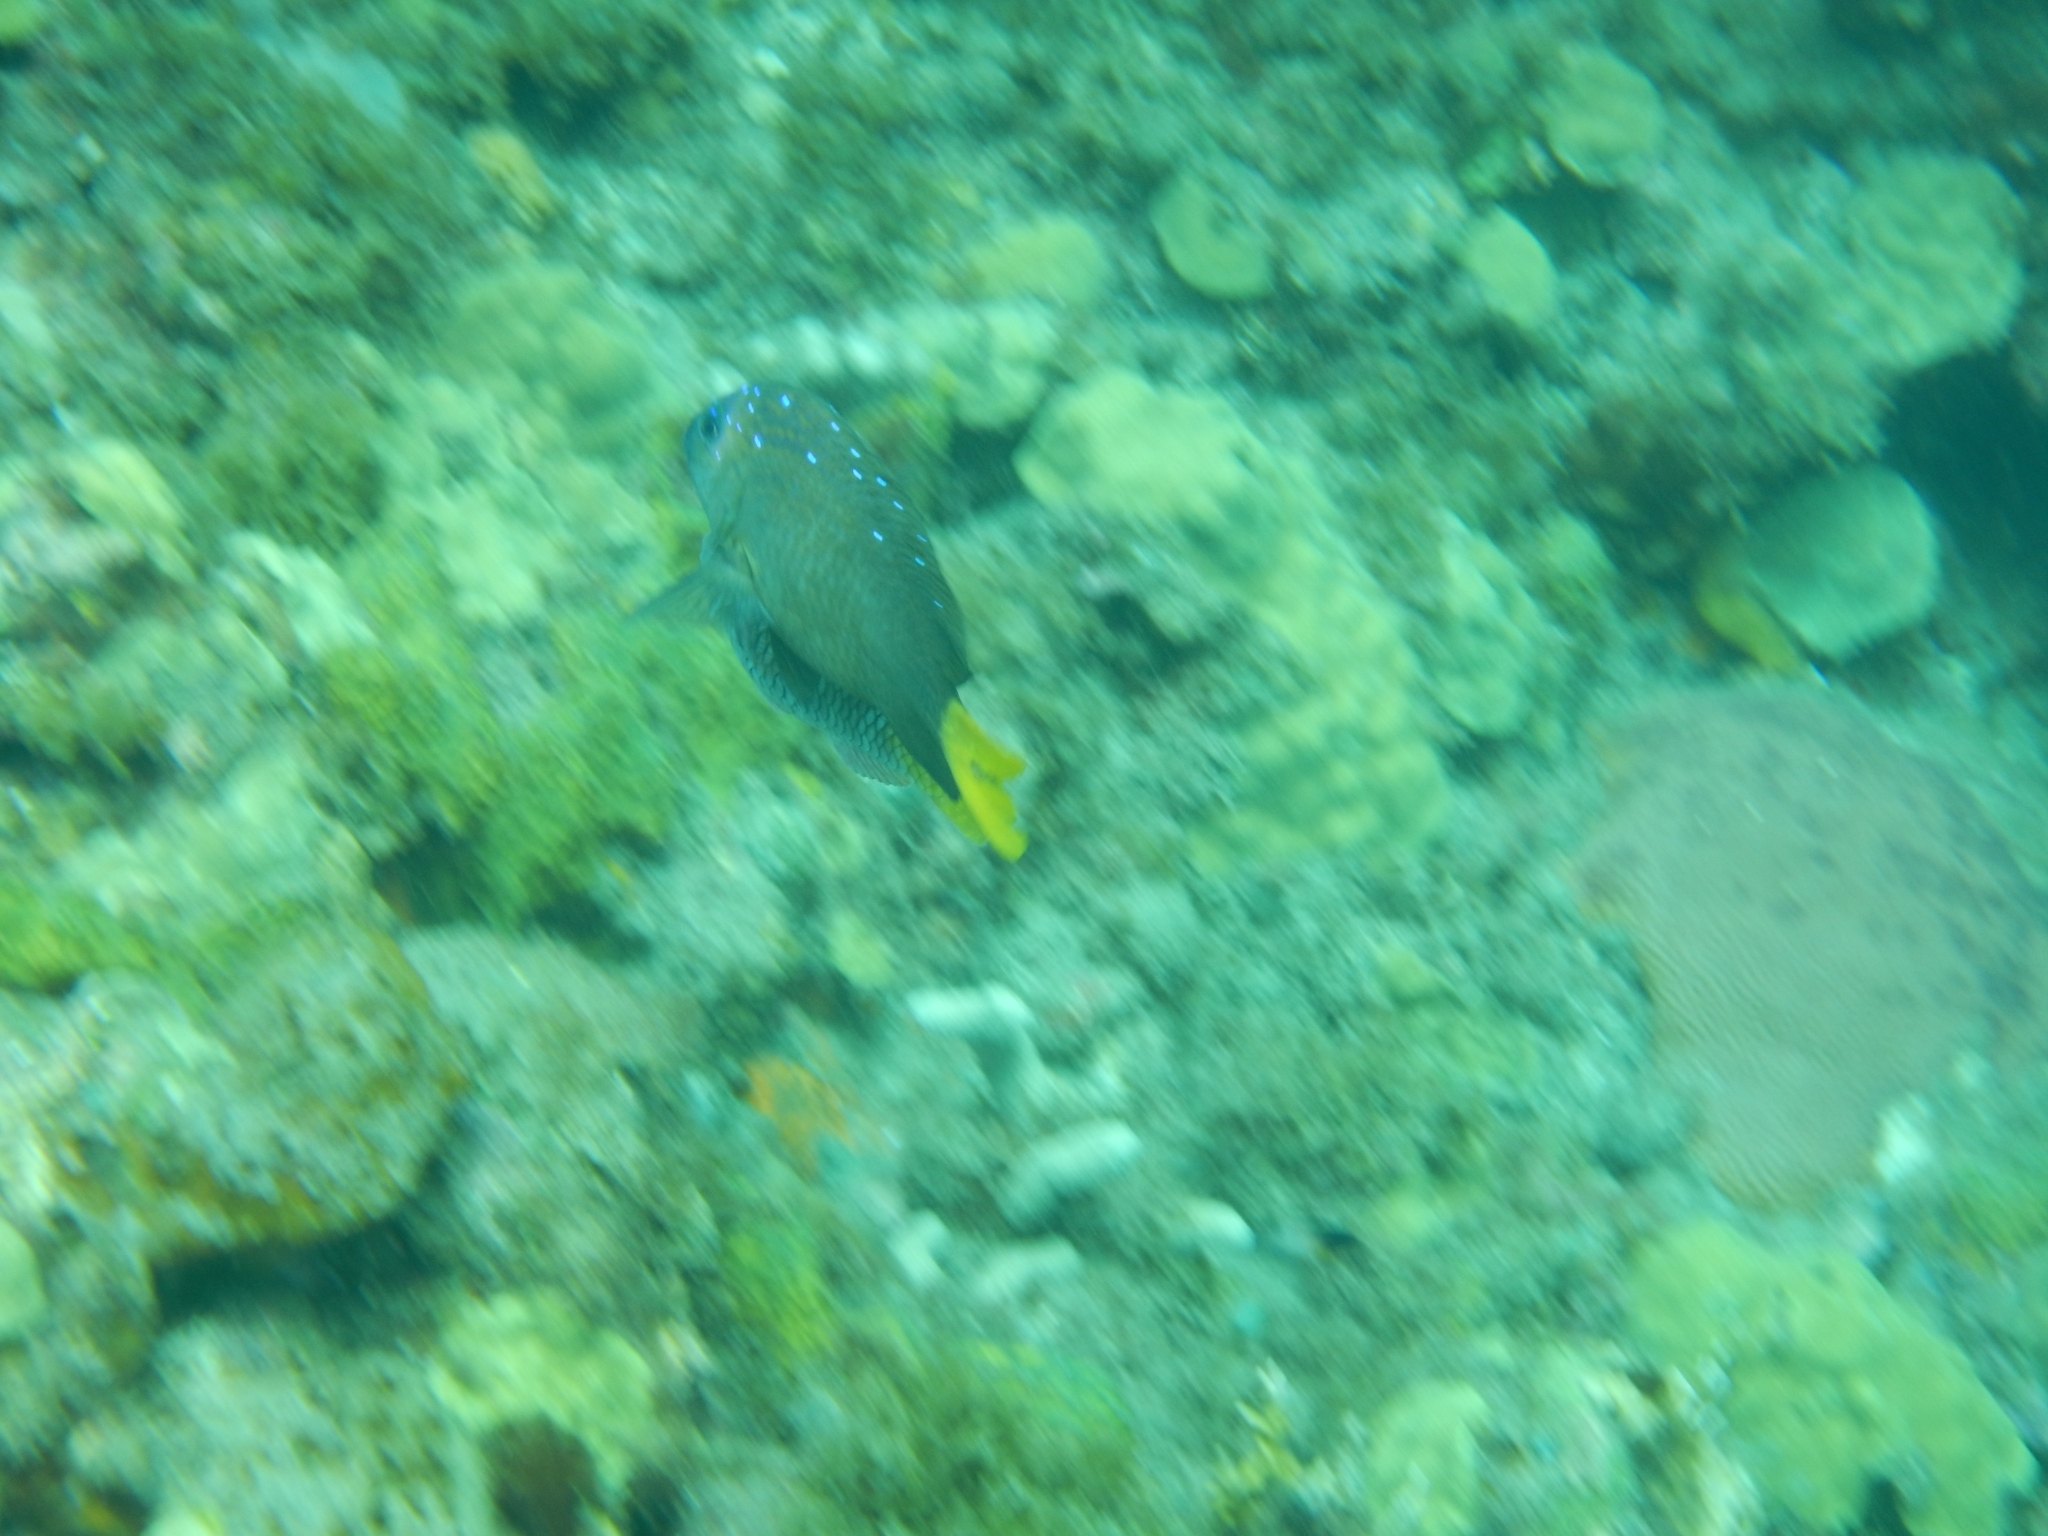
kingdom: Animalia
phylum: Chordata
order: Perciformes
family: Pomacentridae
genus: Microspathodon
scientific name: Microspathodon chrysurus
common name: Yellowtail damselfish
